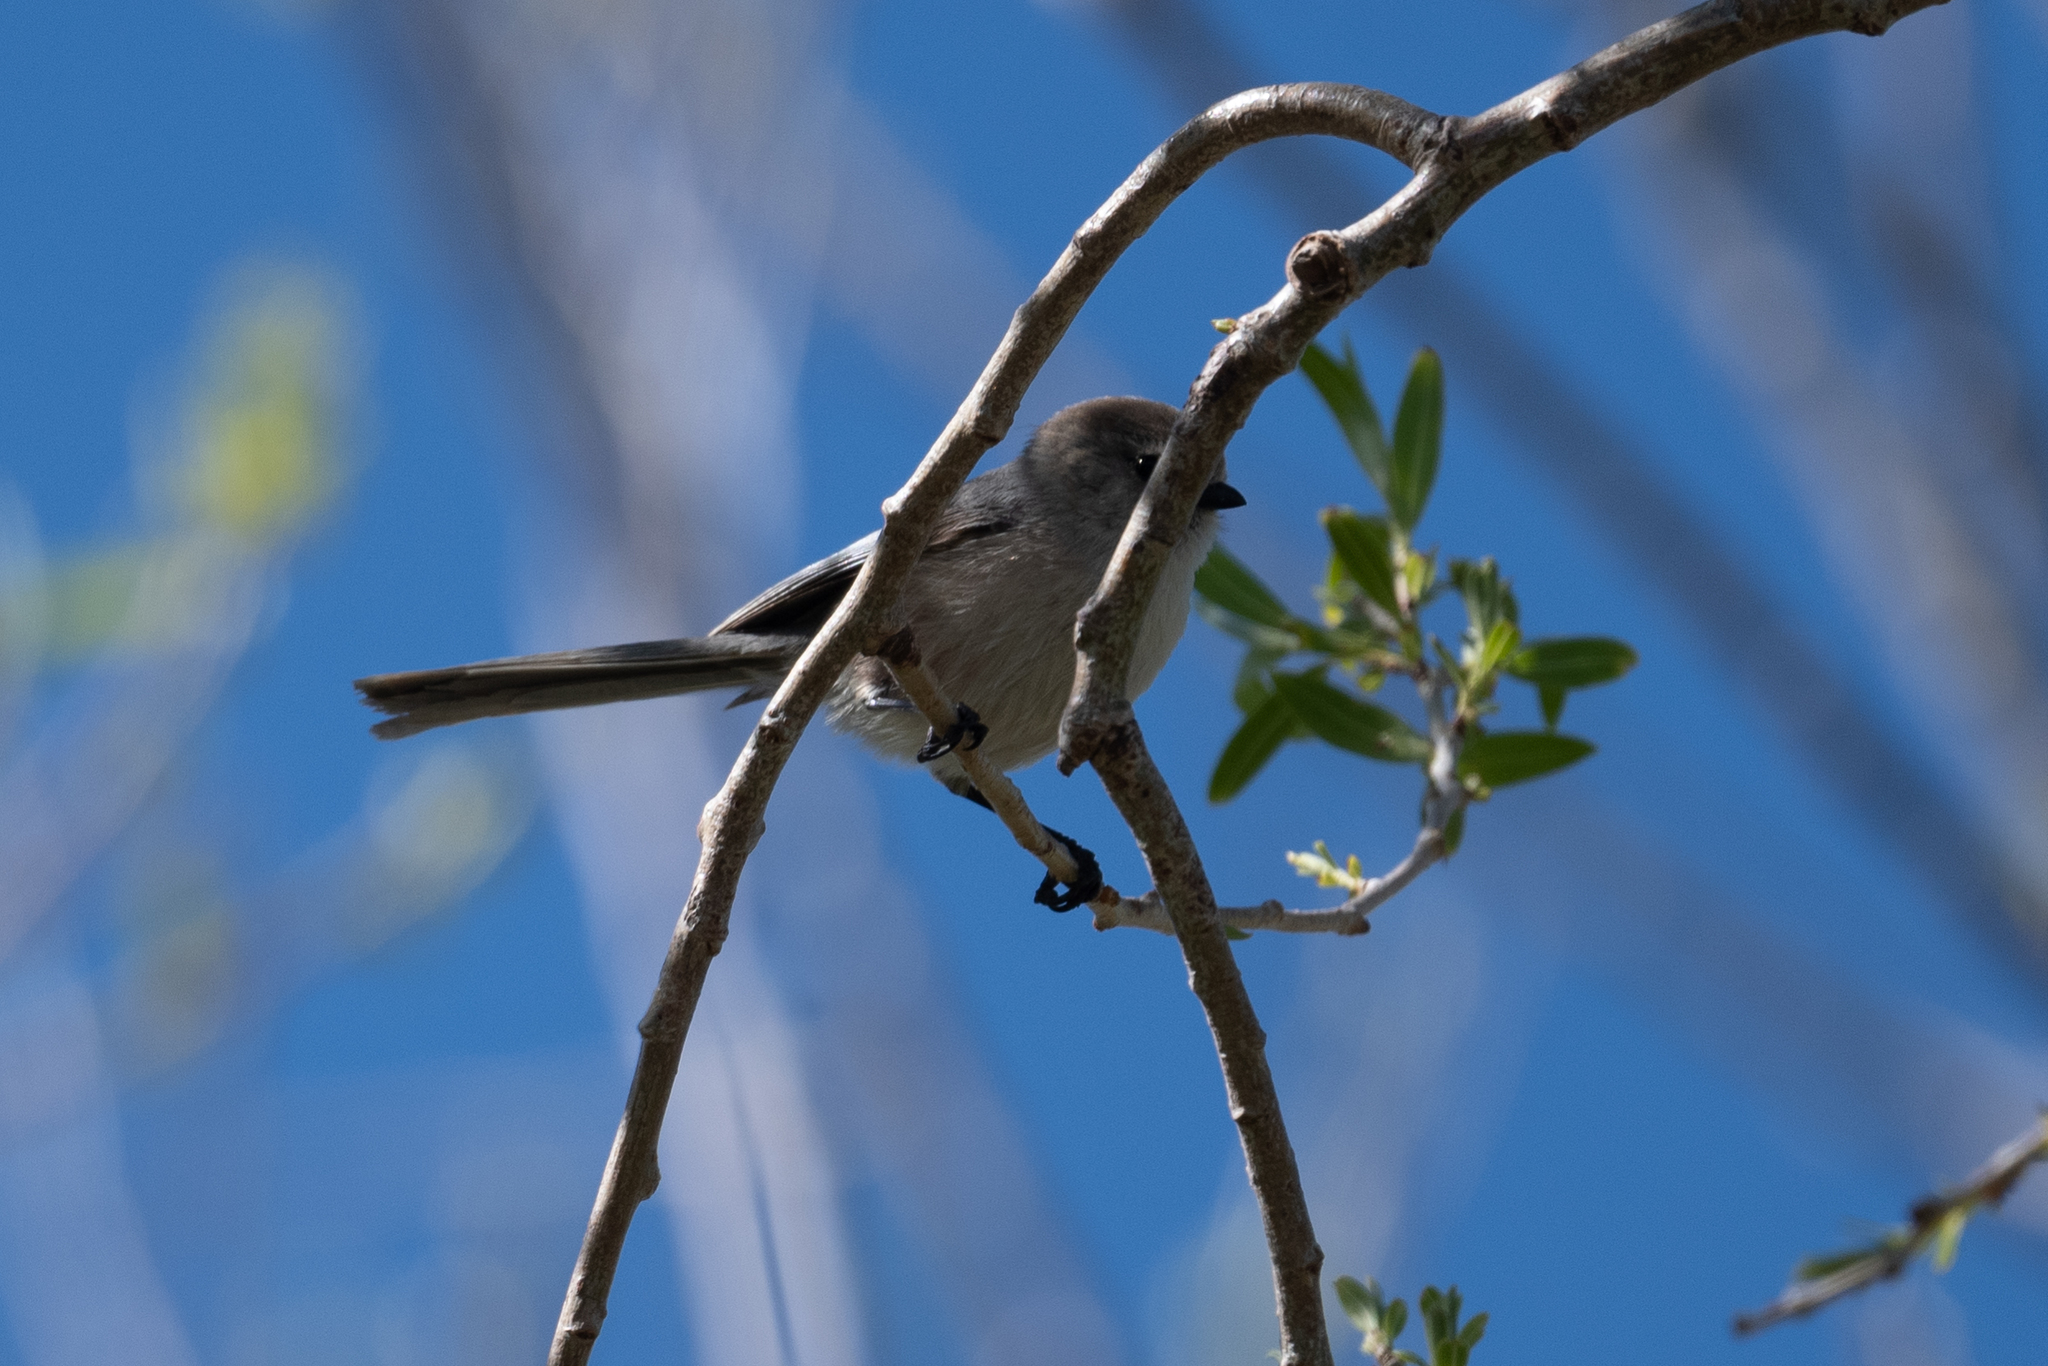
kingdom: Animalia
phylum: Chordata
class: Aves
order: Passeriformes
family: Aegithalidae
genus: Psaltriparus
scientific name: Psaltriparus minimus
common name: American bushtit
